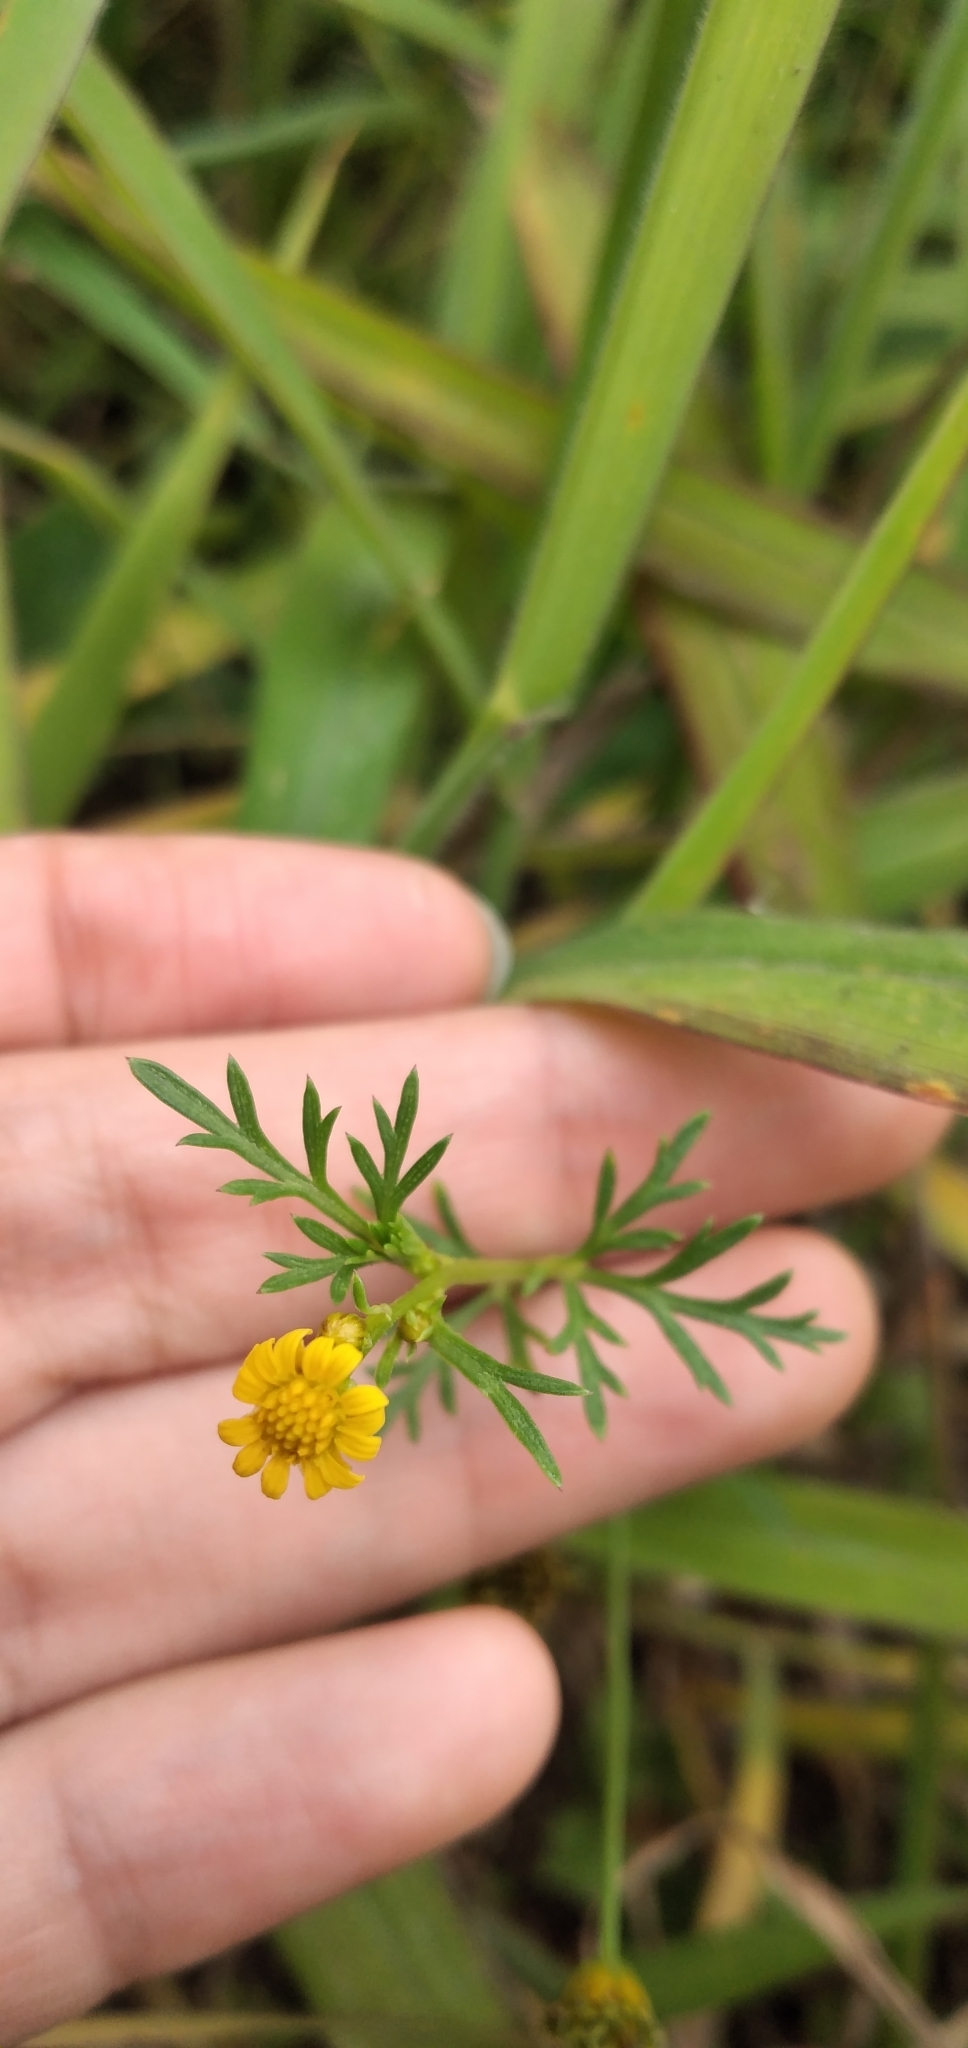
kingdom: Plantae
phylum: Tracheophyta
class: Magnoliopsida
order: Asterales
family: Asteraceae
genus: Chrysanthellum
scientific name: Chrysanthellum indicum
